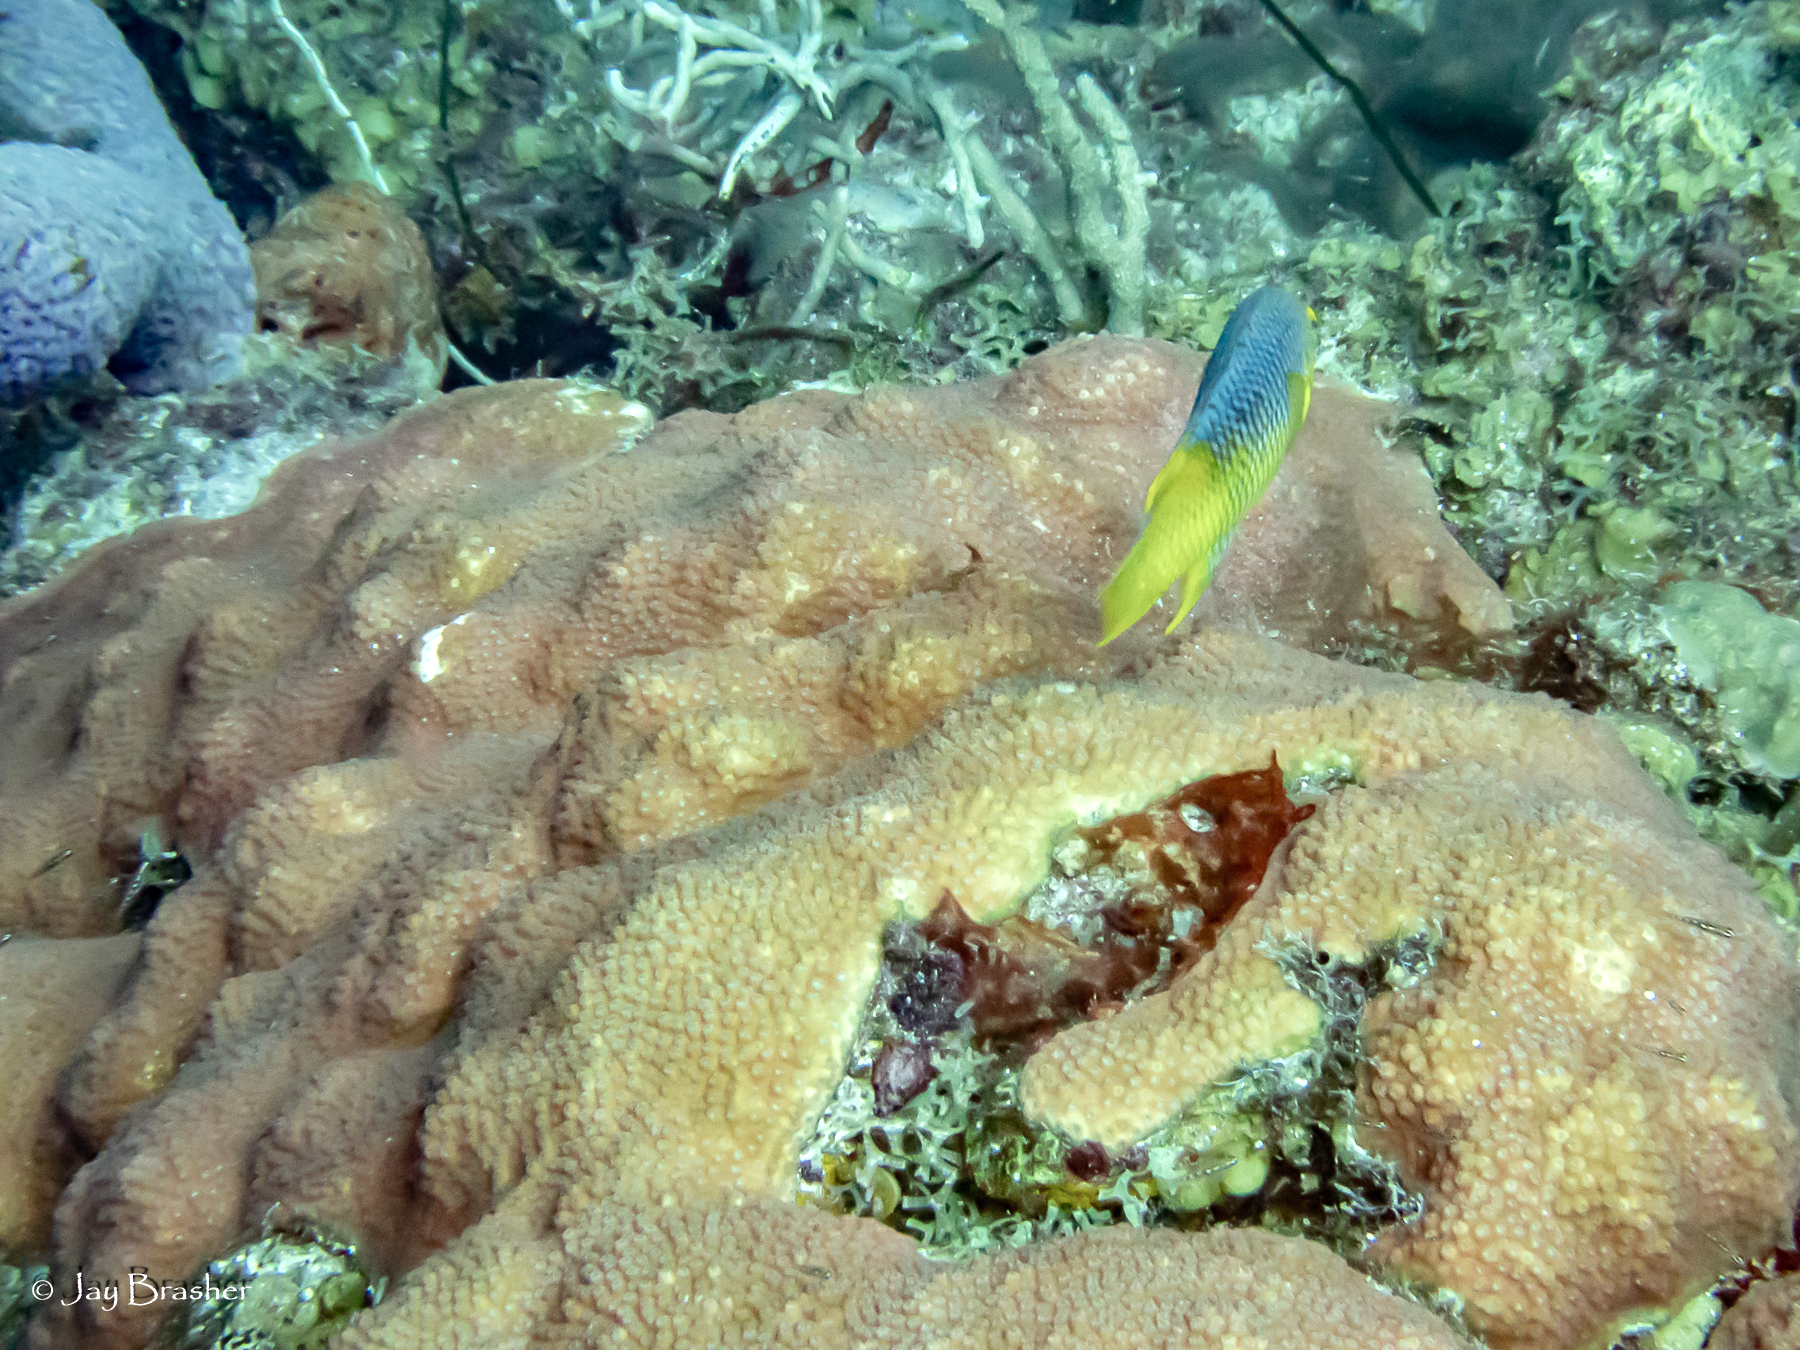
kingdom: Animalia
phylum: Chordata
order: Perciformes
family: Labridae
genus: Bodianus
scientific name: Bodianus rufus
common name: Spanish hogfish
